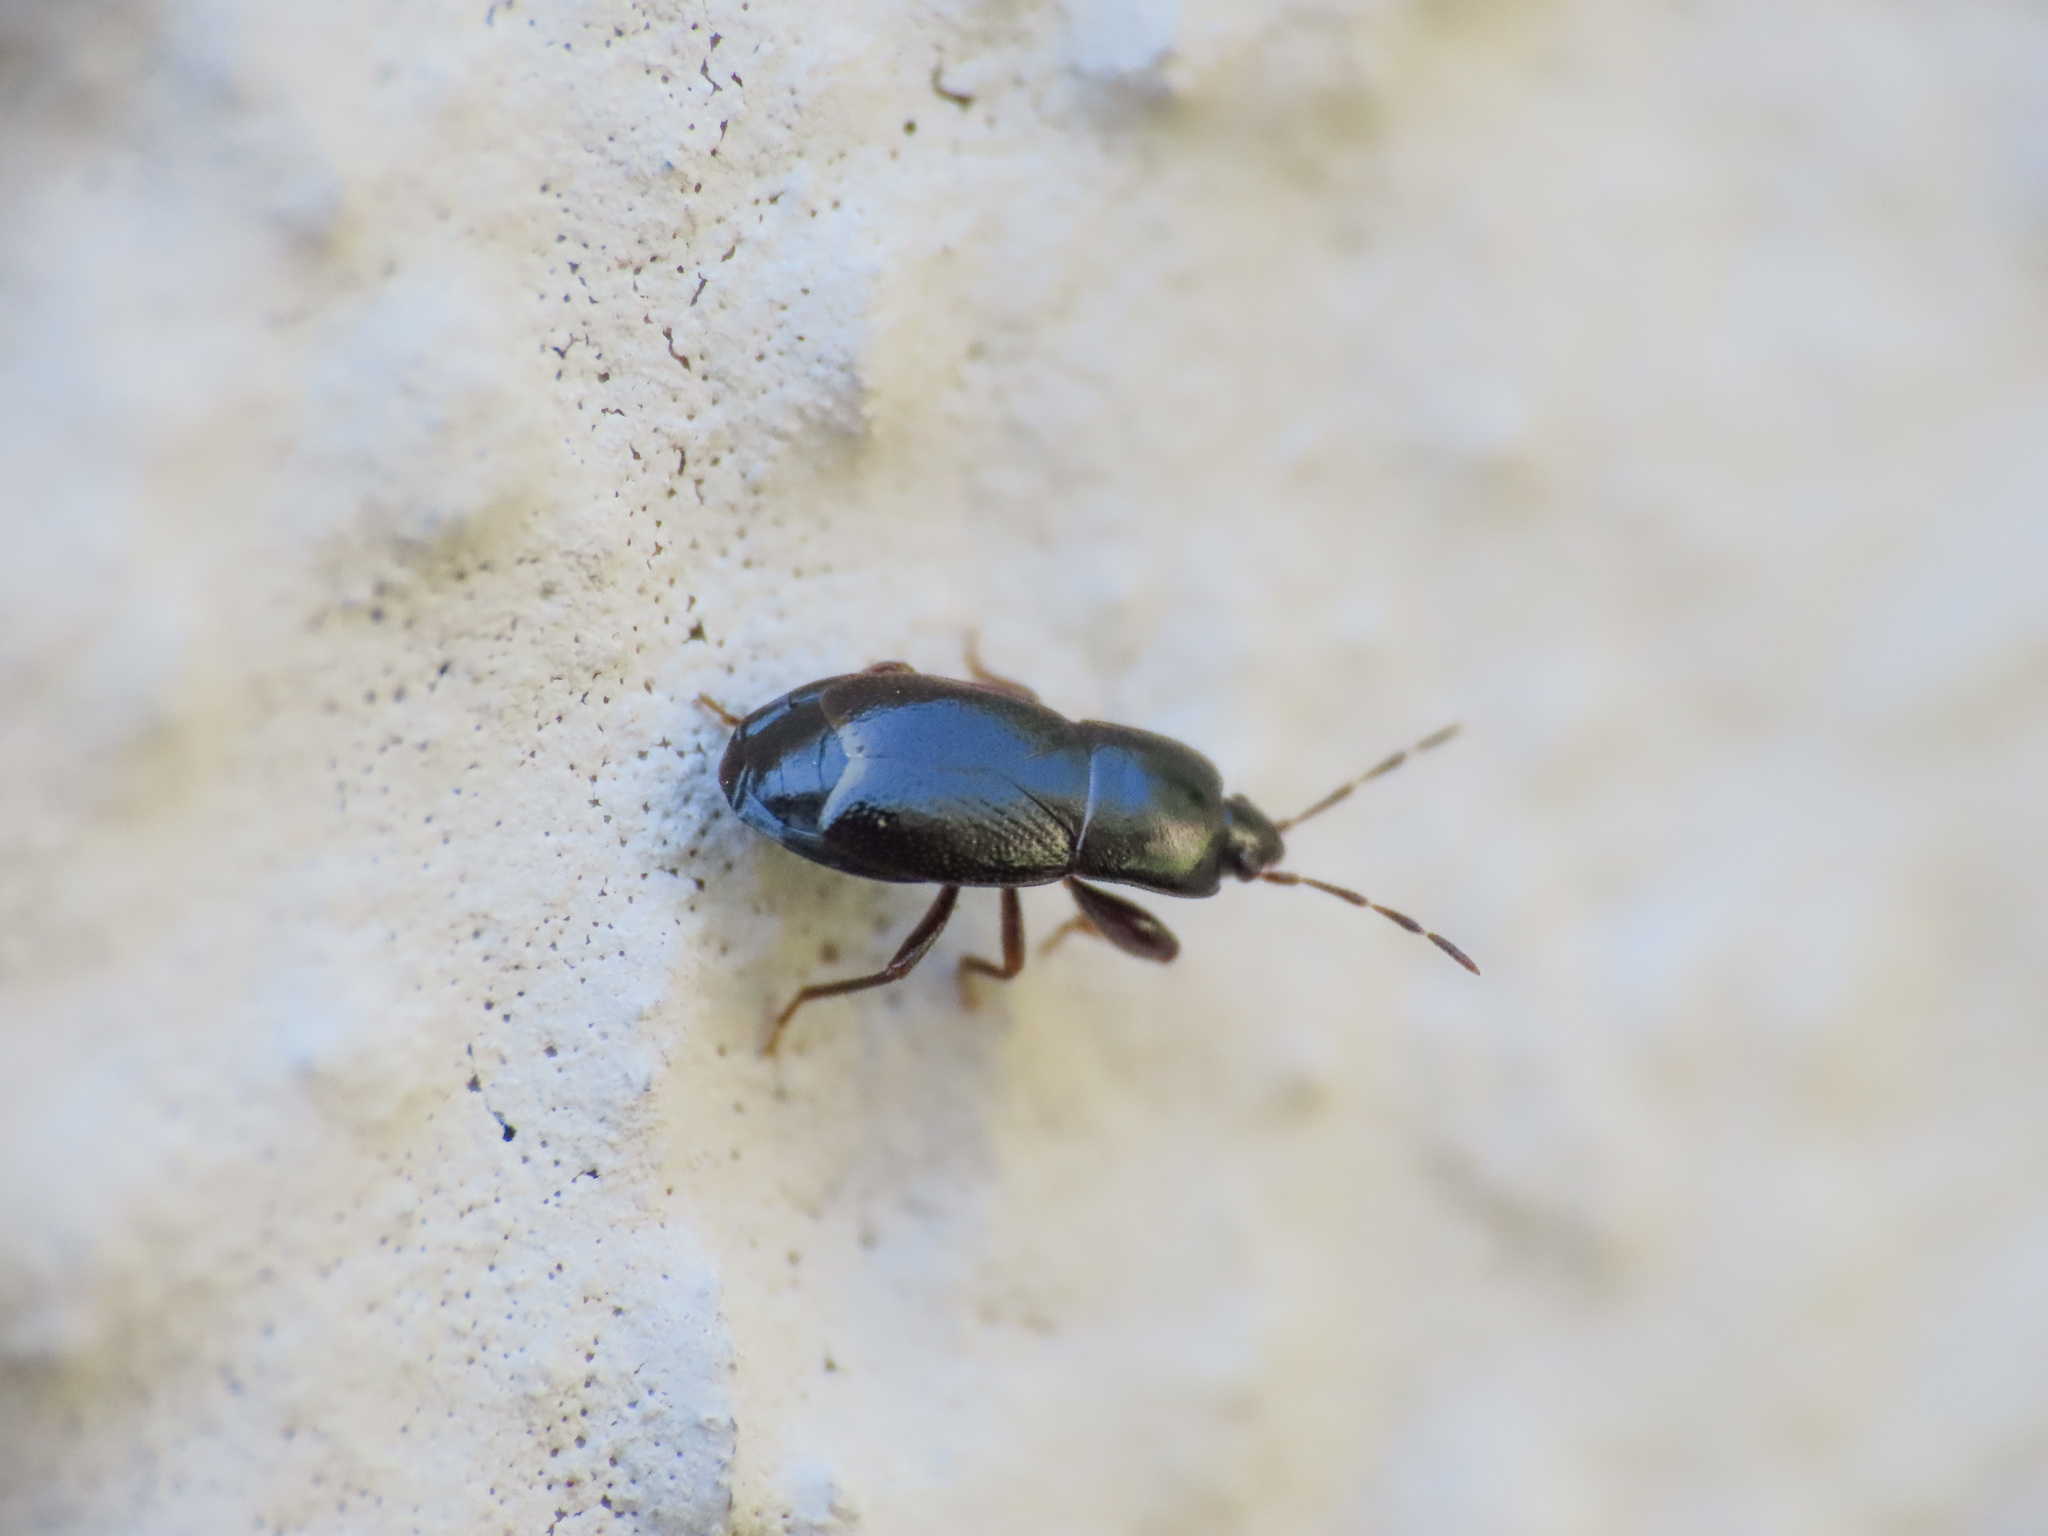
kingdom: Animalia
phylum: Arthropoda
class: Insecta
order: Hemiptera
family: Rhyparochromidae
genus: Plinthisus
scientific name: Plinthisus brevipennis
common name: Seed bug
